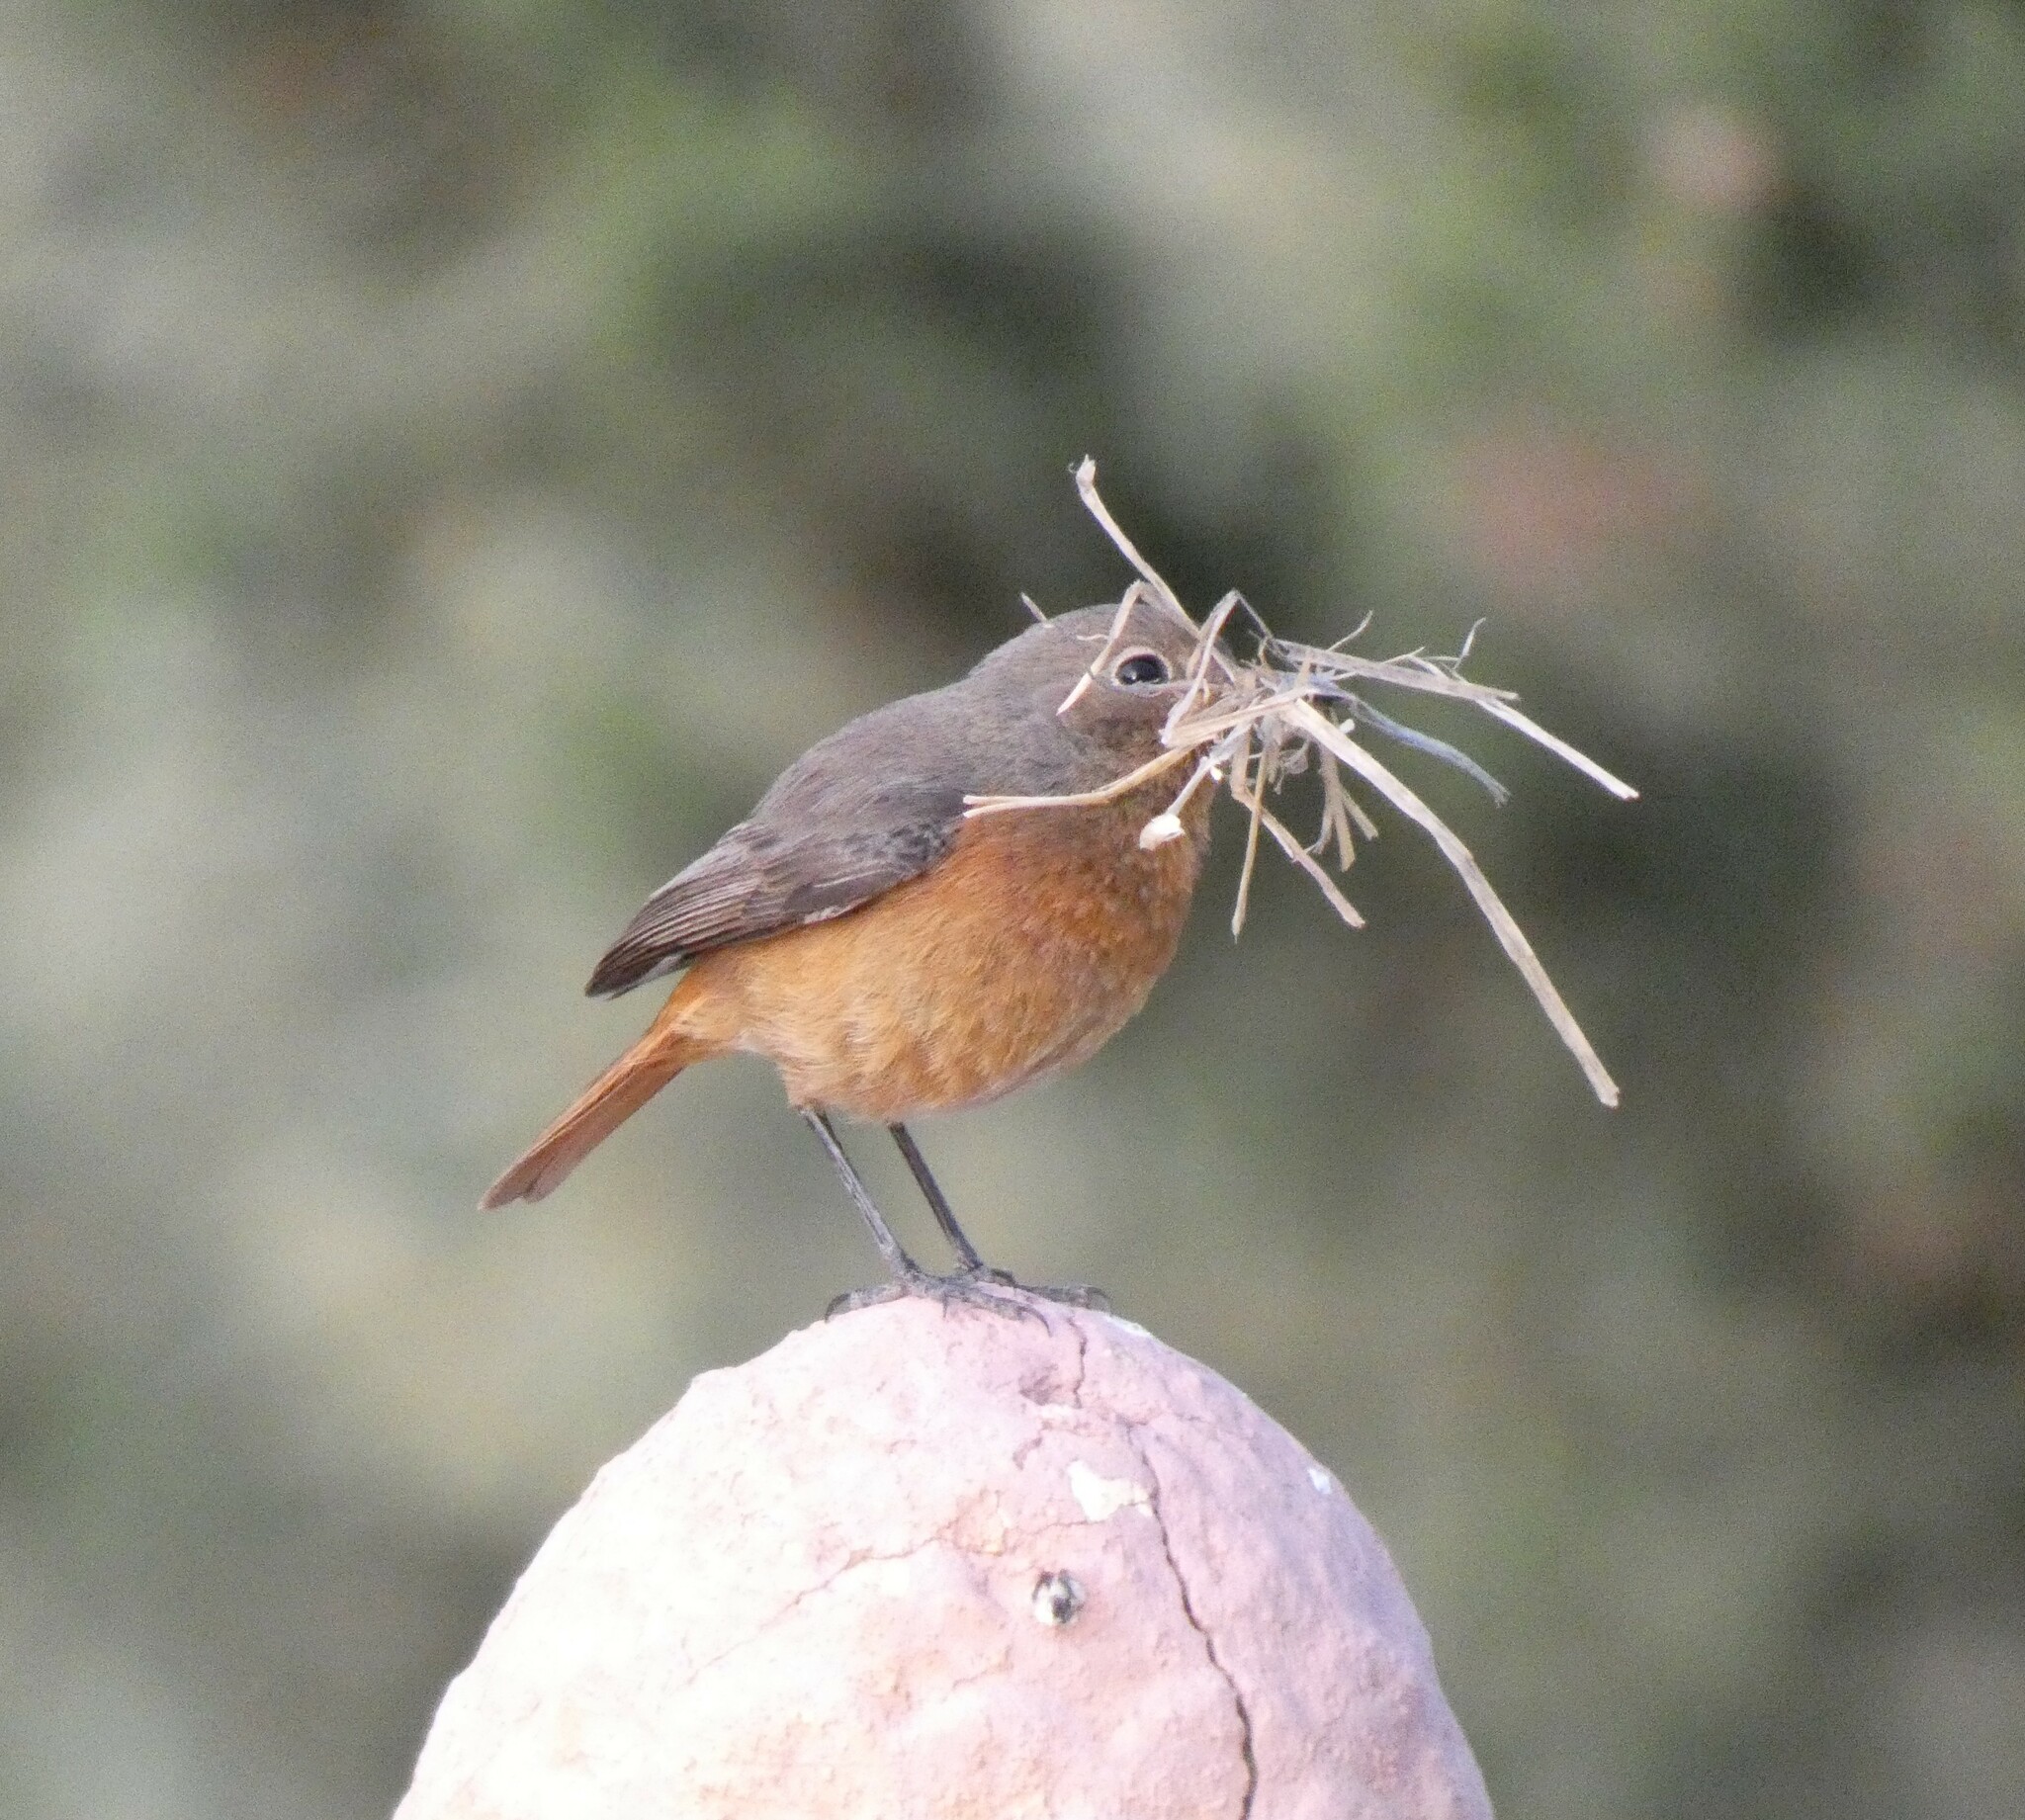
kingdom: Animalia
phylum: Chordata
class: Aves
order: Passeriformes
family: Muscicapidae
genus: Phoenicurus
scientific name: Phoenicurus moussieri
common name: Moussier's redstart
